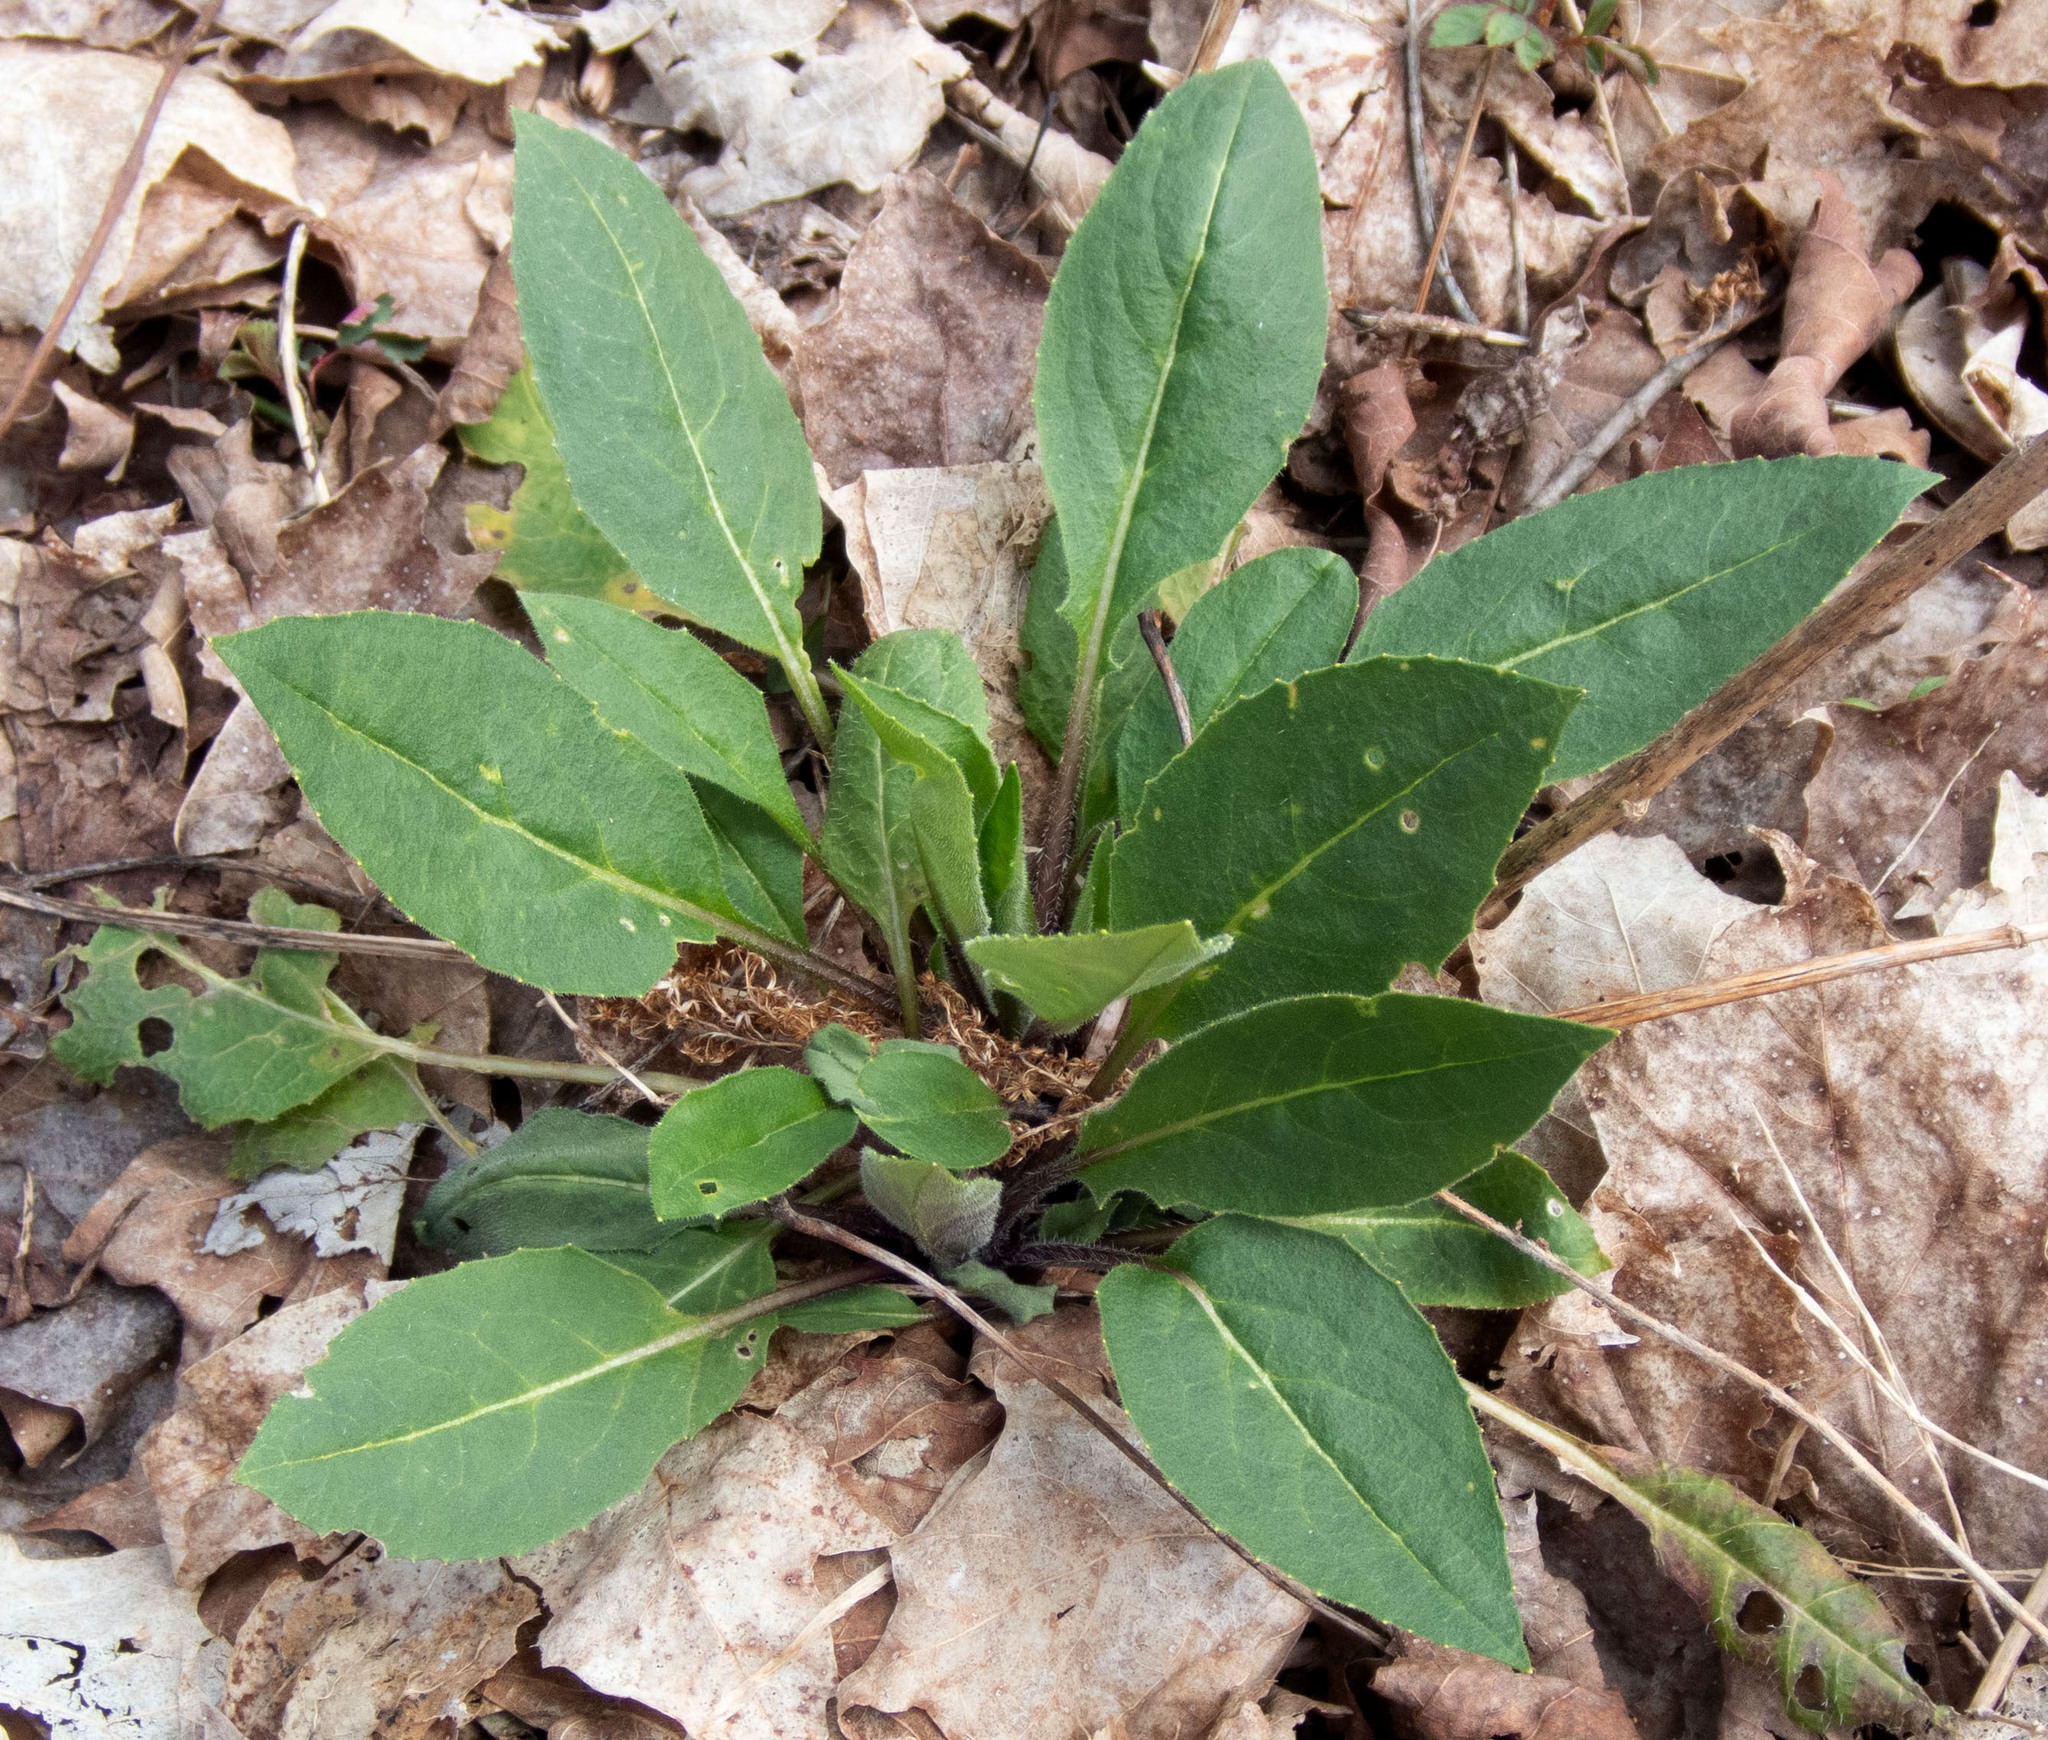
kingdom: Plantae
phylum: Tracheophyta
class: Magnoliopsida
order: Brassicales
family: Brassicaceae
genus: Hesperis
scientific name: Hesperis matronalis
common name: Dame's-violet
